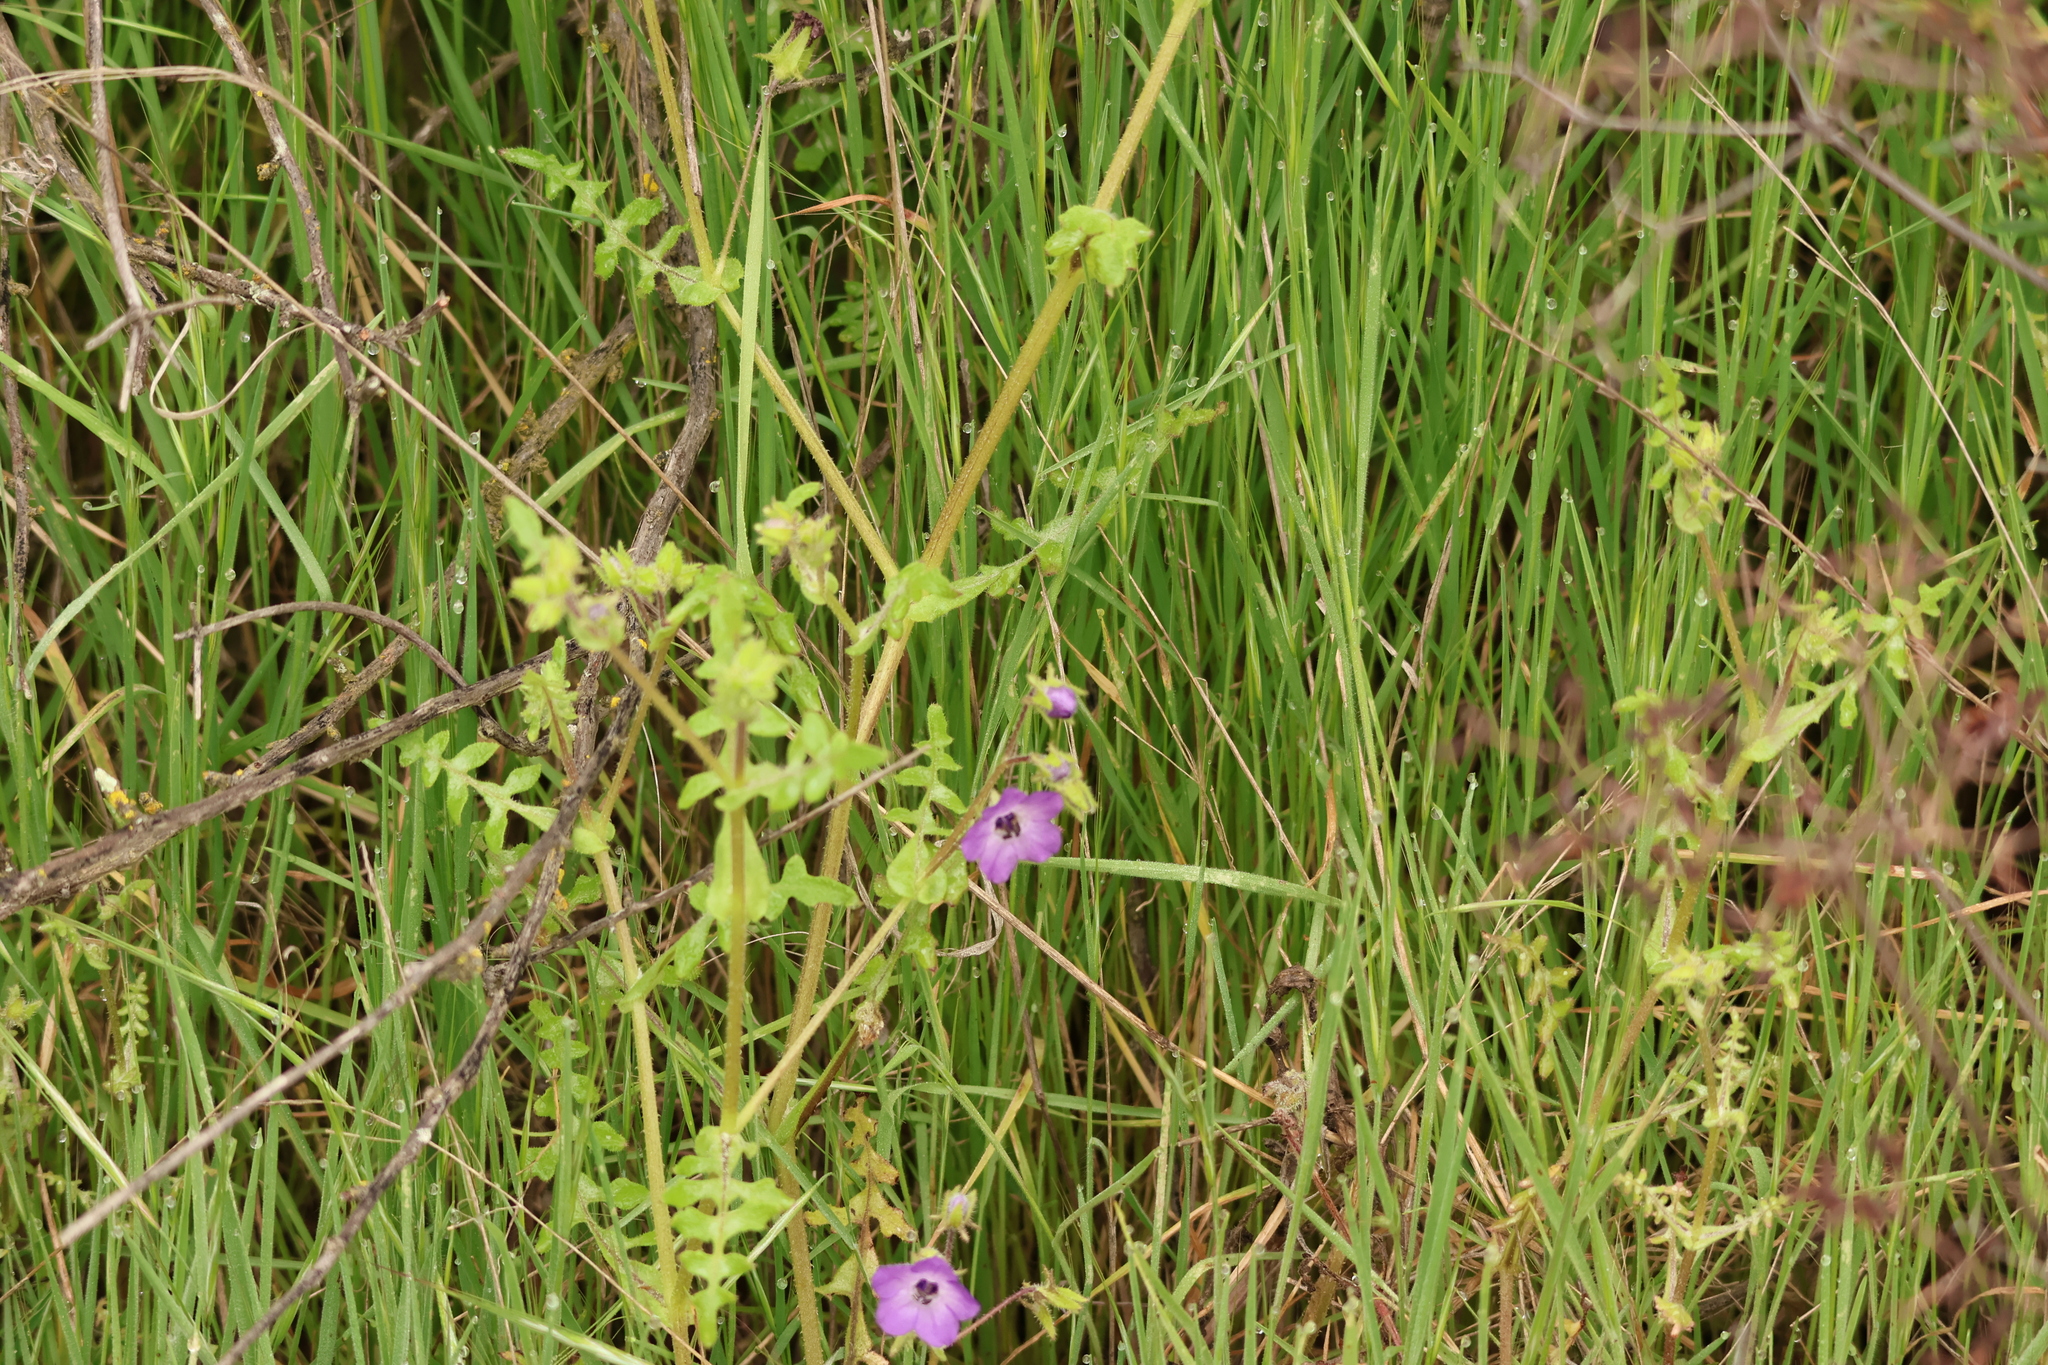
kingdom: Plantae
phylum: Tracheophyta
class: Magnoliopsida
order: Boraginales
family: Hydrophyllaceae
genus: Pholistoma
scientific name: Pholistoma auritum
